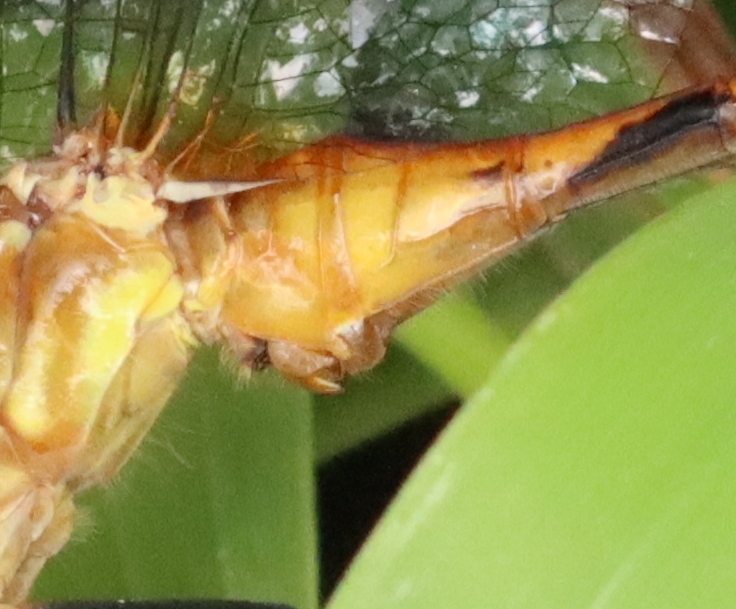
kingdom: Animalia
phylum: Arthropoda
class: Insecta
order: Odonata
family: Libellulidae
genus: Sympetrum
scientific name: Sympetrum rubicundulum
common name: Ruby meadowhawk
